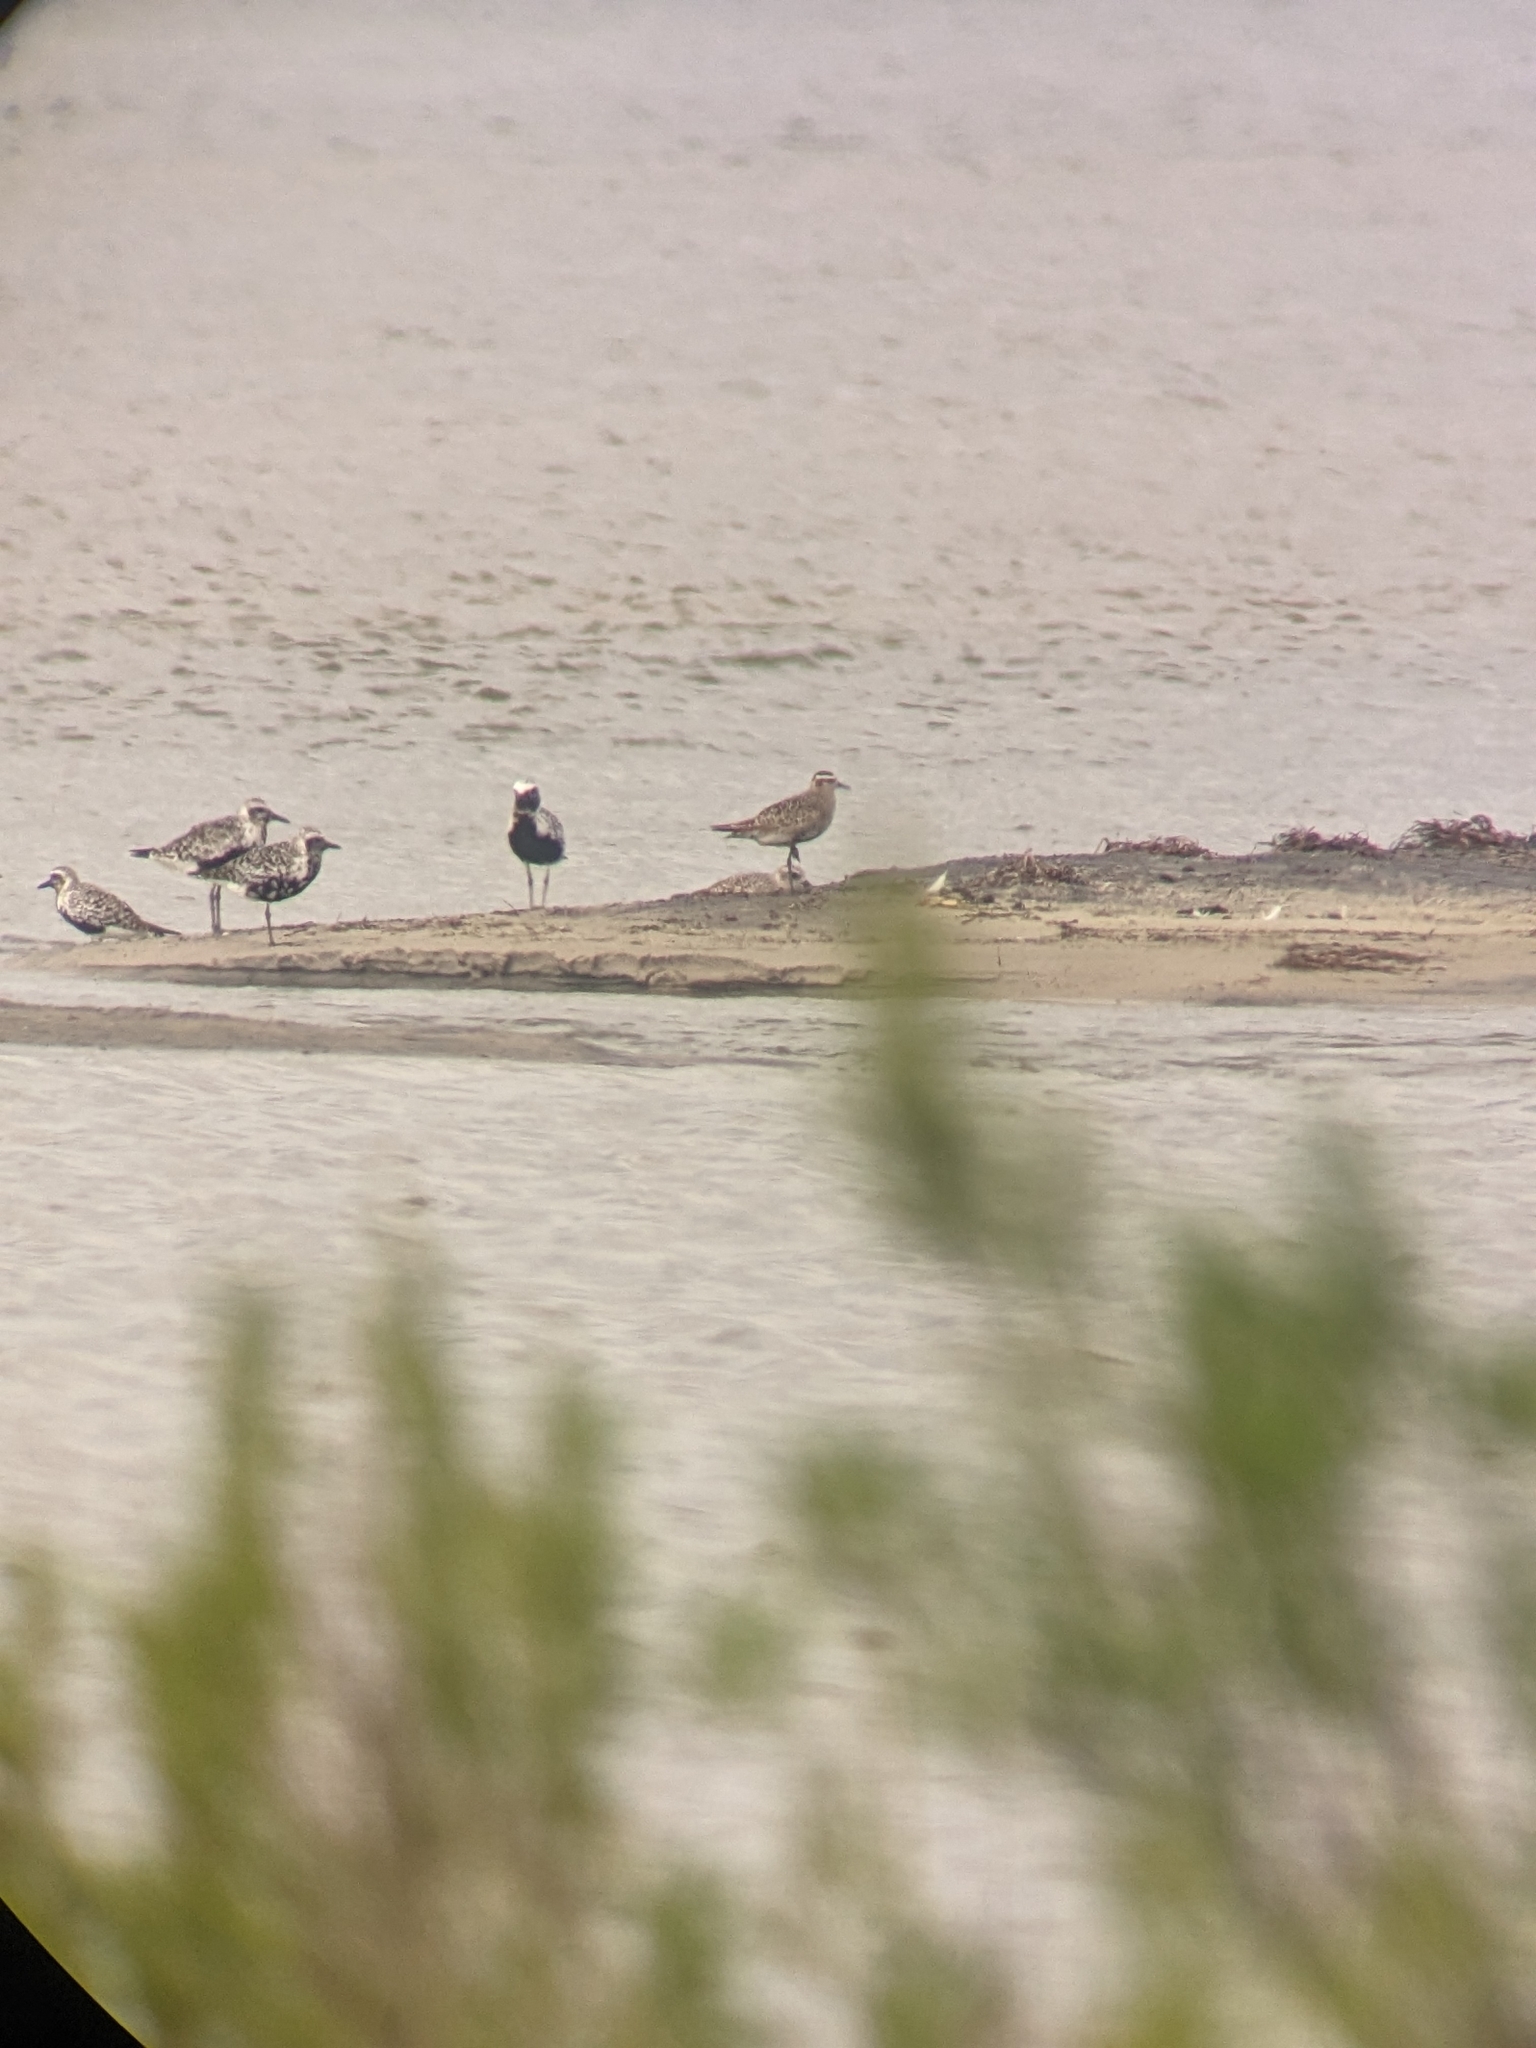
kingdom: Animalia
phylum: Chordata
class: Aves
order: Charadriiformes
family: Charadriidae
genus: Pluvialis
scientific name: Pluvialis dominica
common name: American golden plover
